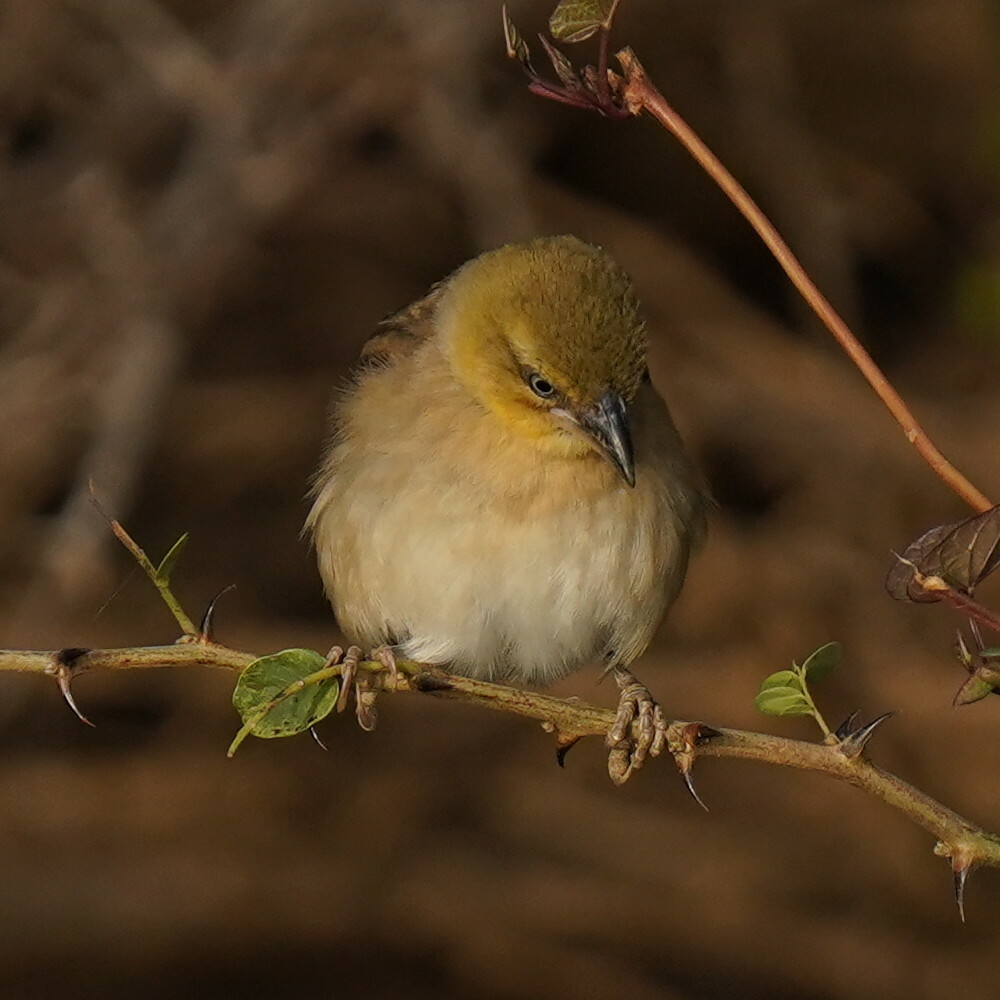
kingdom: Animalia
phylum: Chordata
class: Aves
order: Passeriformes
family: Ploceidae
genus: Ploceus
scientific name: Ploceus melanocephalus
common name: Black-headed weaver
